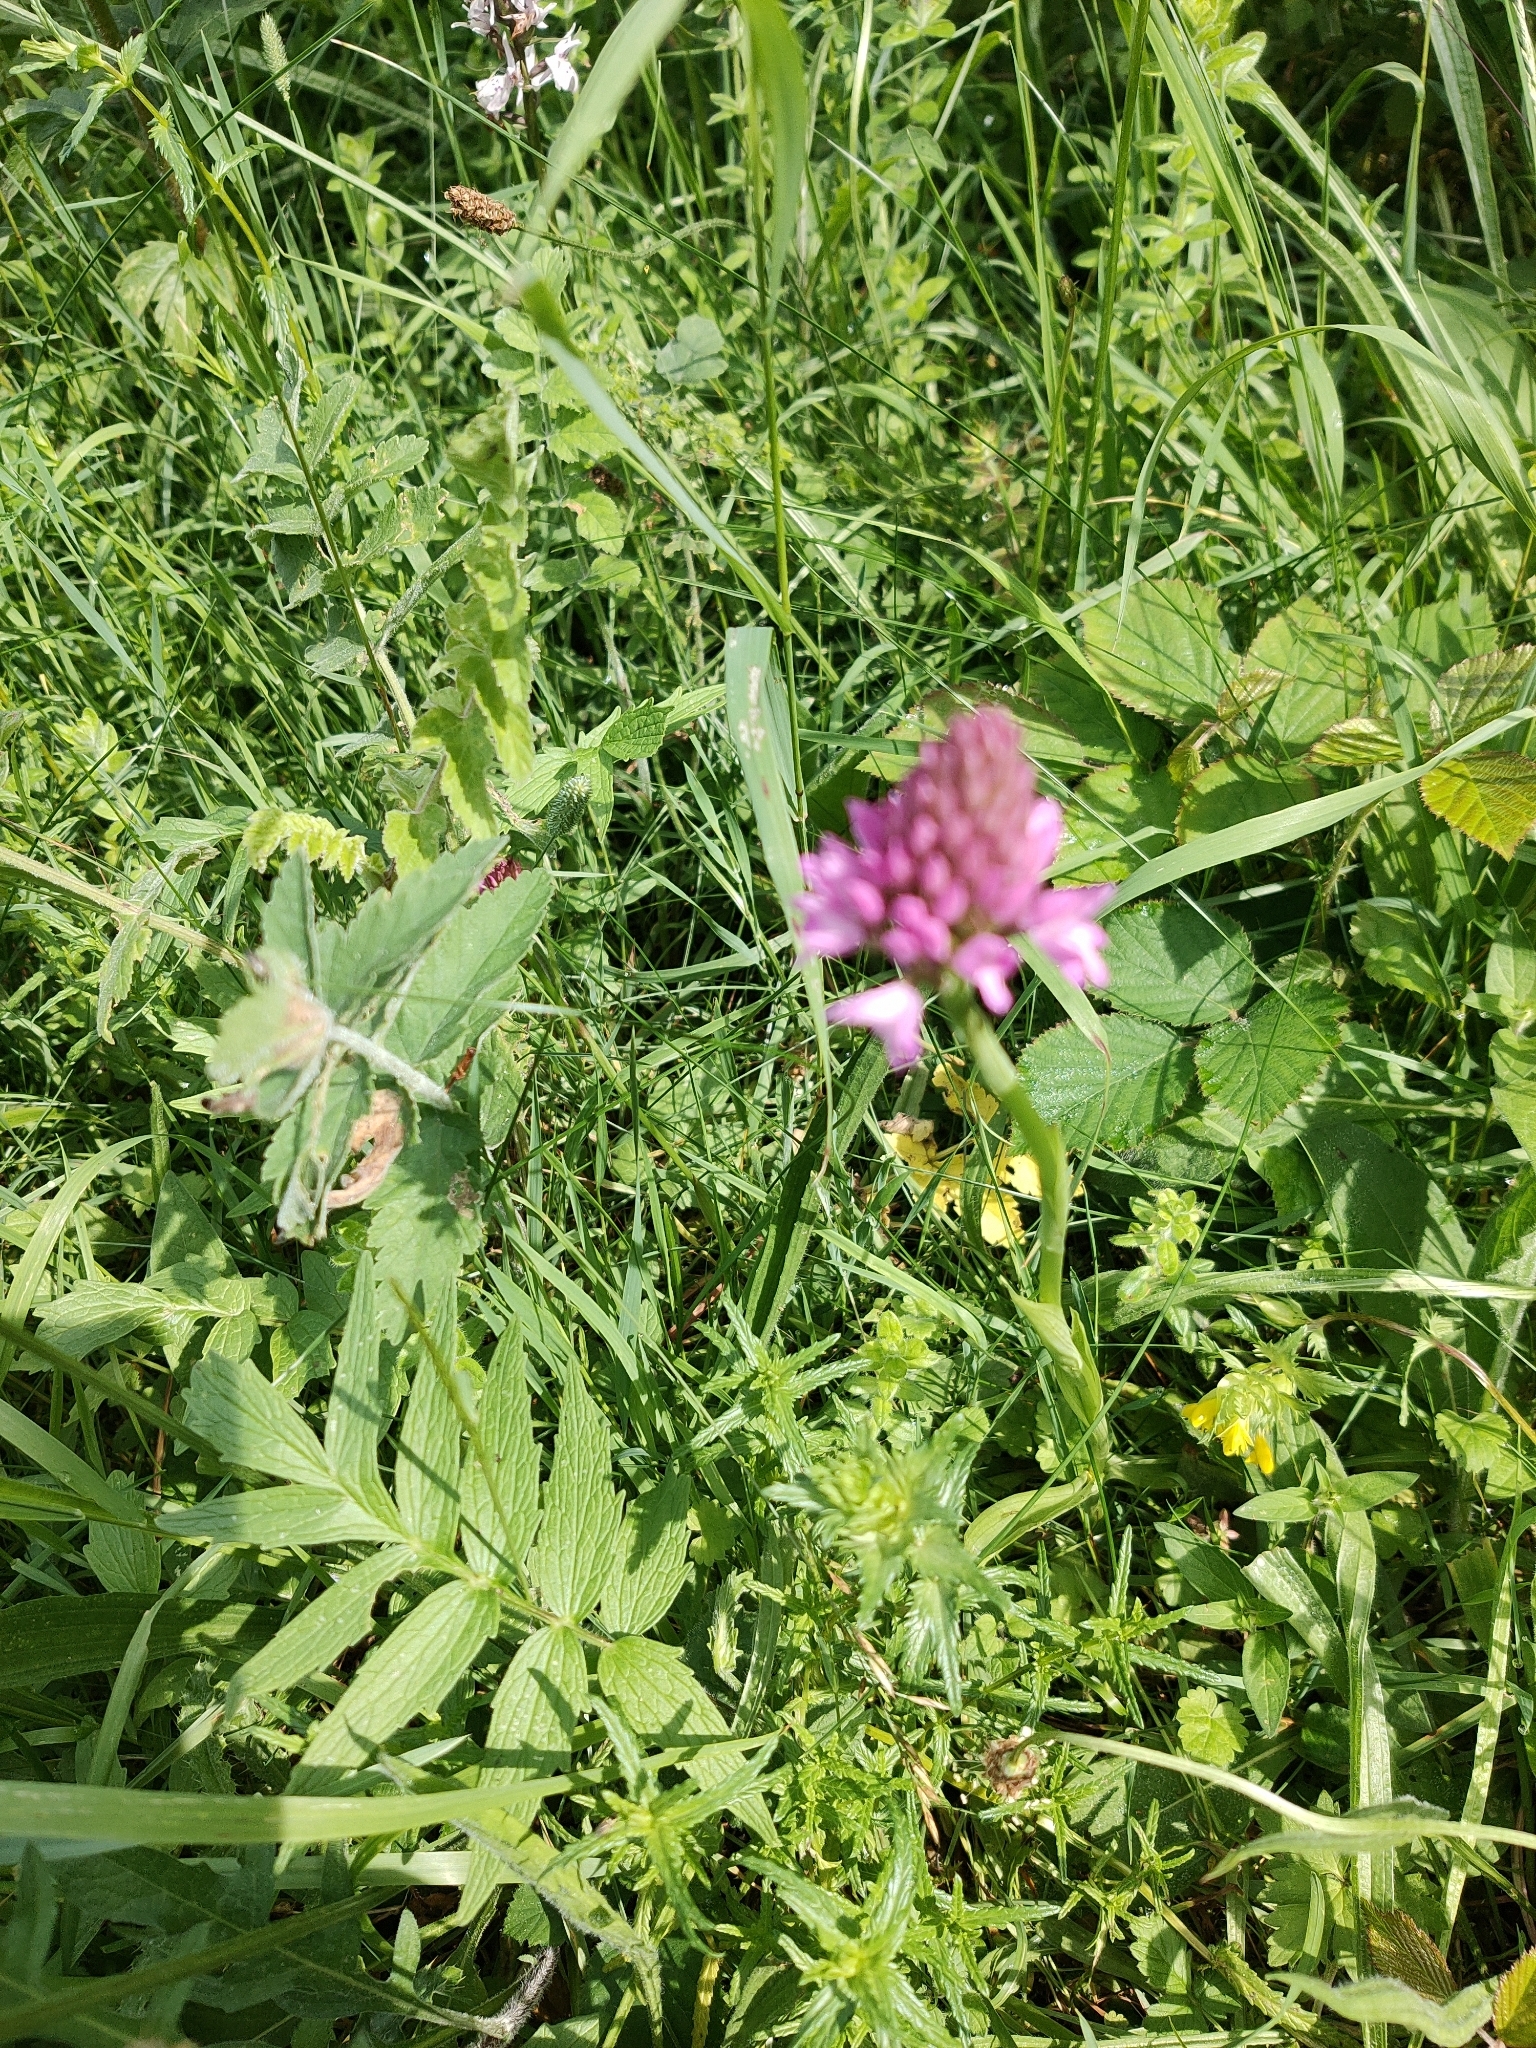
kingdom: Plantae
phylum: Tracheophyta
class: Liliopsida
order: Asparagales
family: Orchidaceae
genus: Anacamptis
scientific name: Anacamptis pyramidalis
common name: Pyramidal orchid
